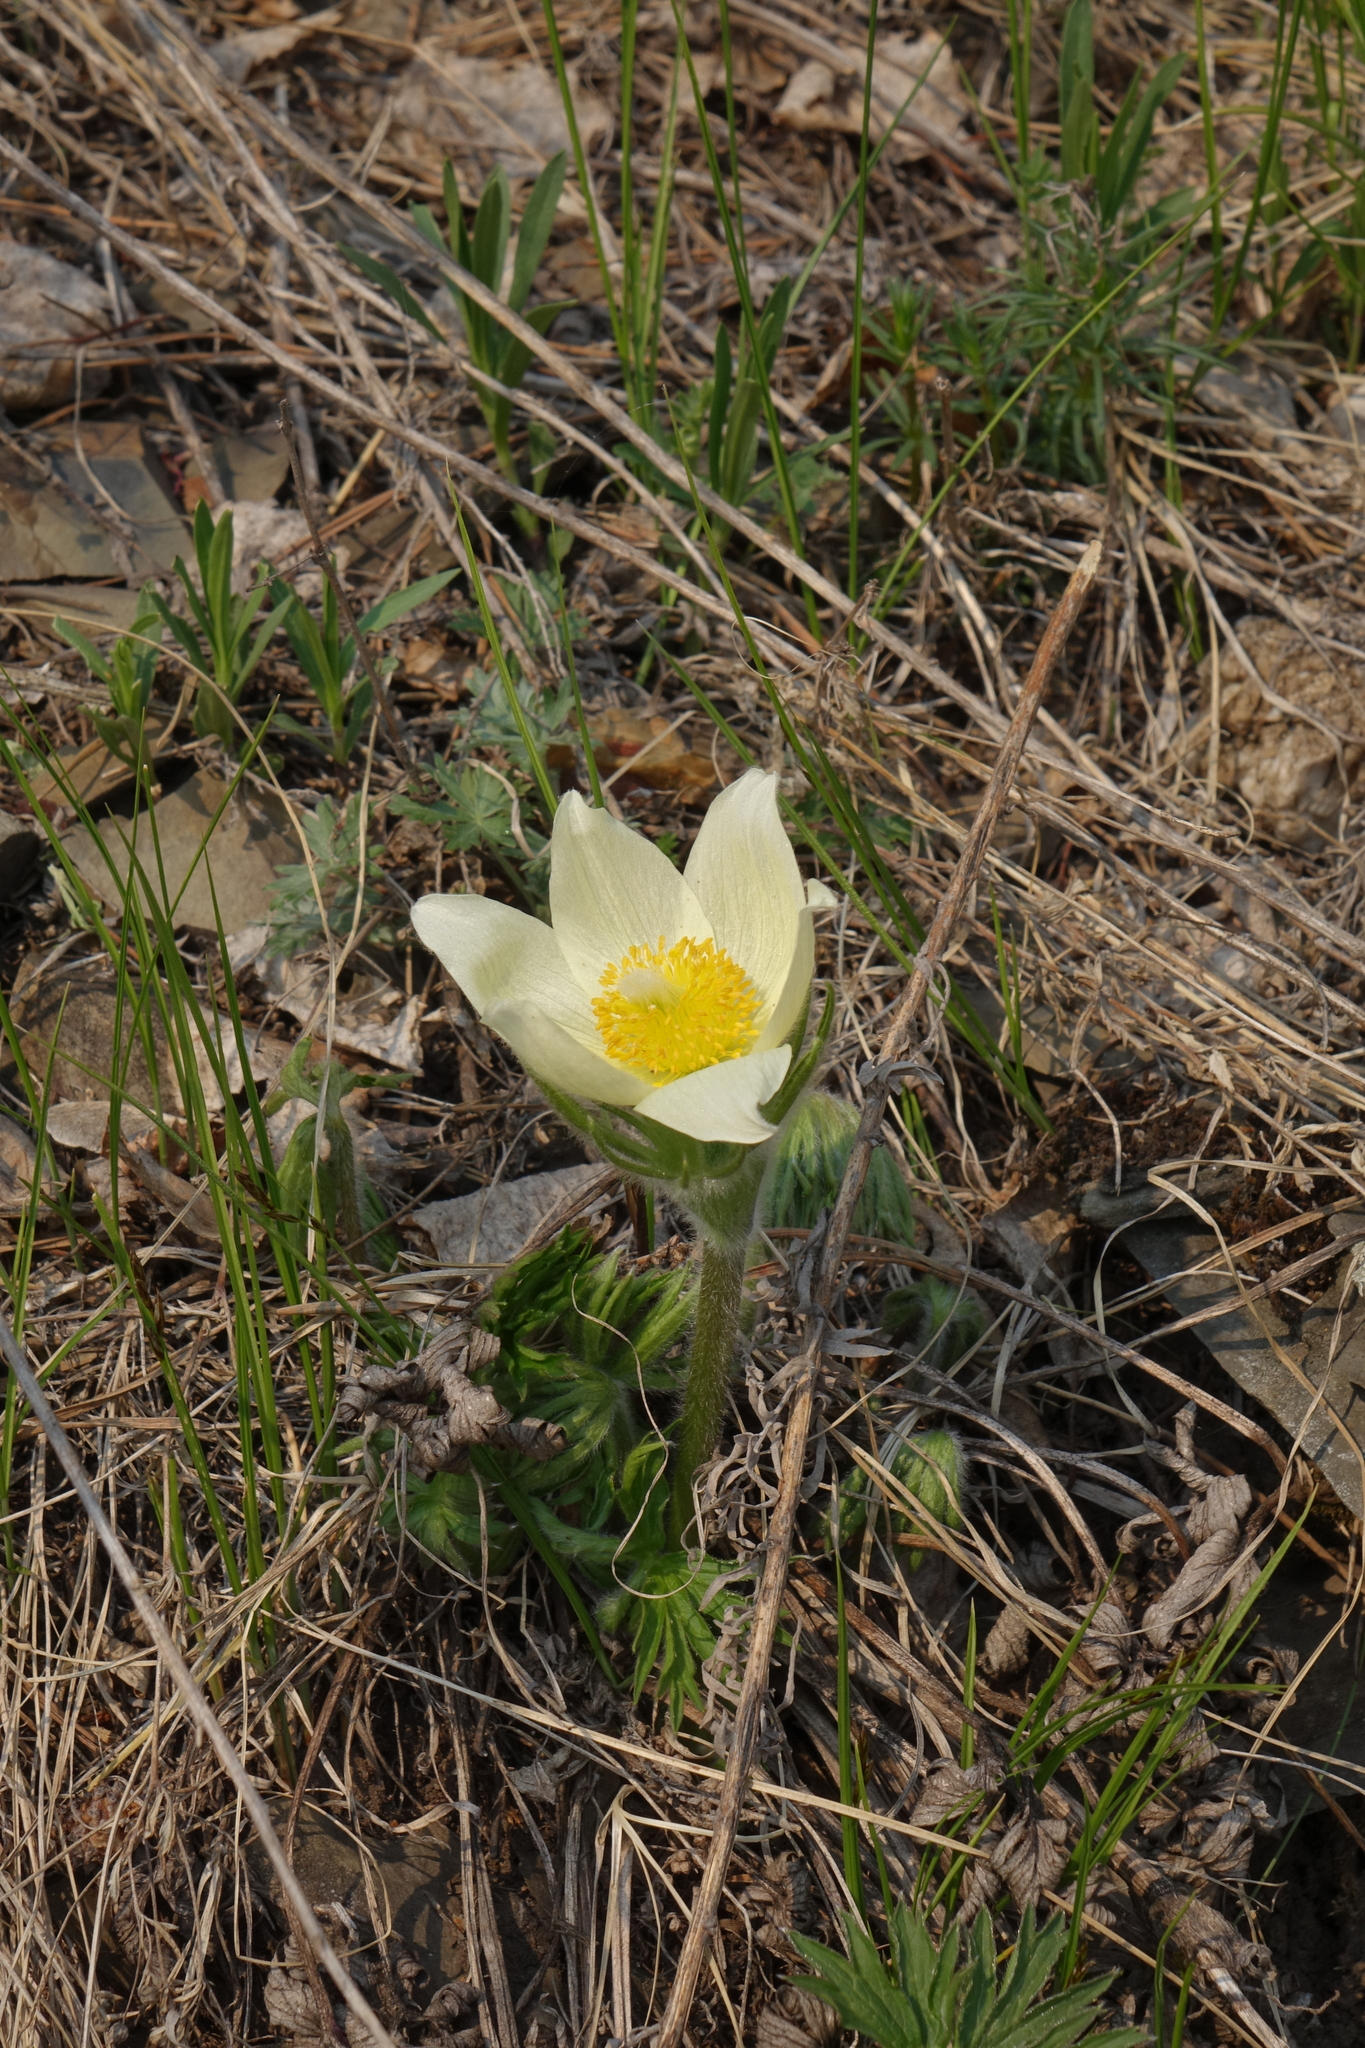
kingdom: Plantae
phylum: Tracheophyta
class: Magnoliopsida
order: Ranunculales
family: Ranunculaceae
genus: Pulsatilla
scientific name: Pulsatilla patens
